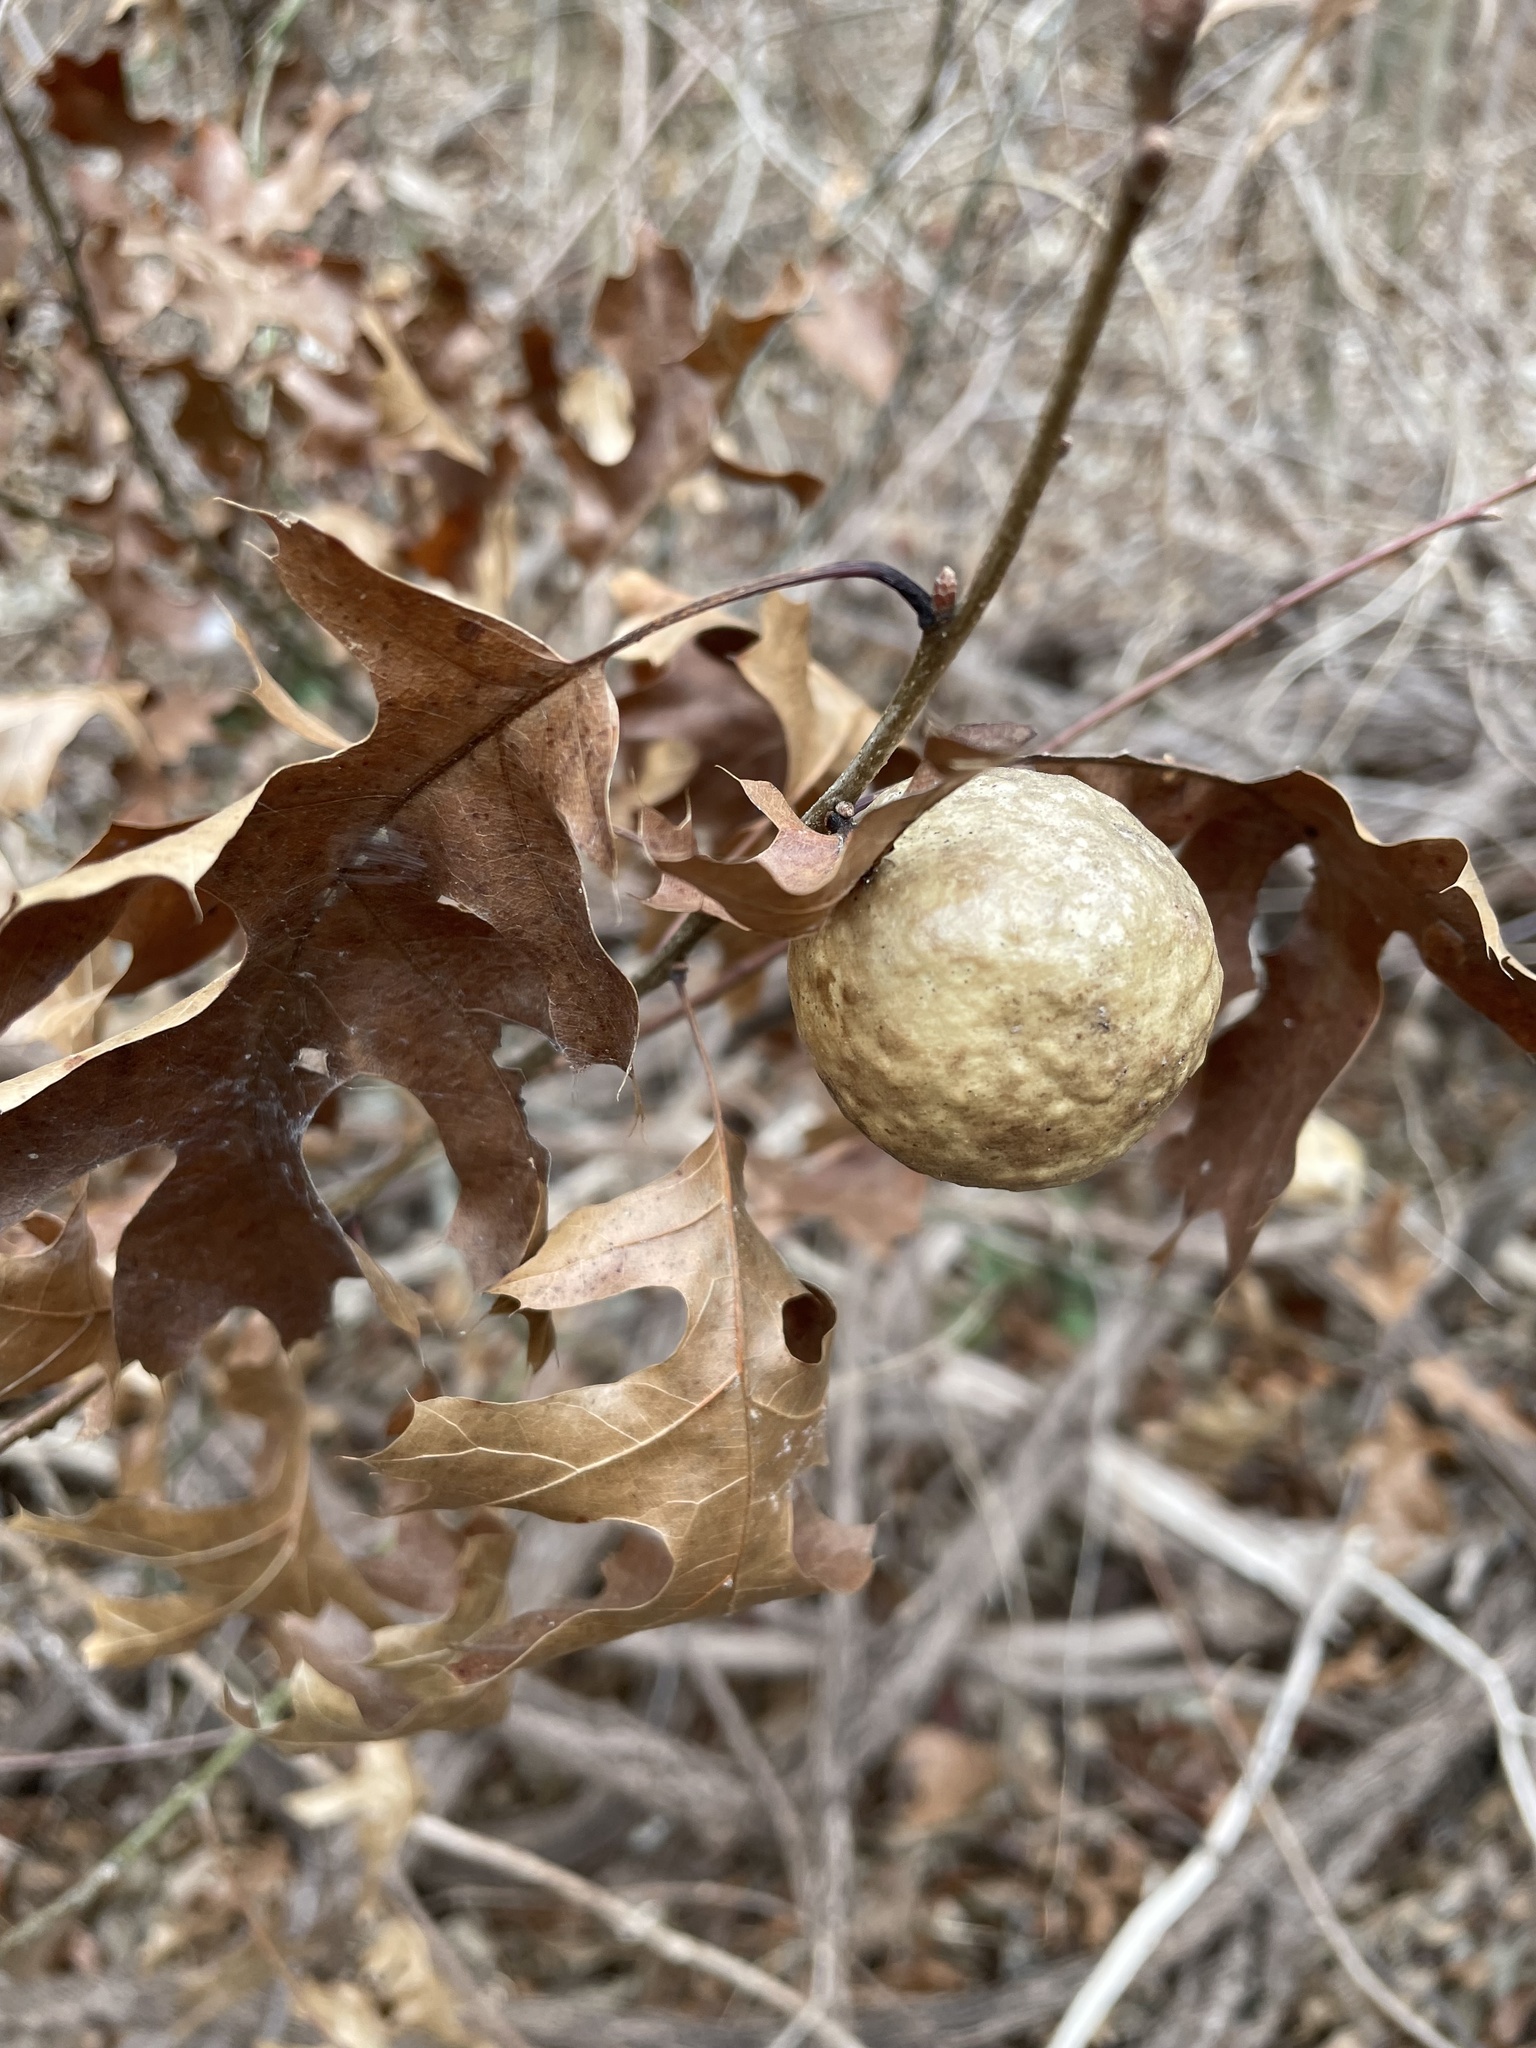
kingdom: Animalia
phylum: Arthropoda
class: Insecta
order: Hymenoptera
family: Cynipidae
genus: Amphibolips
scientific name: Amphibolips
